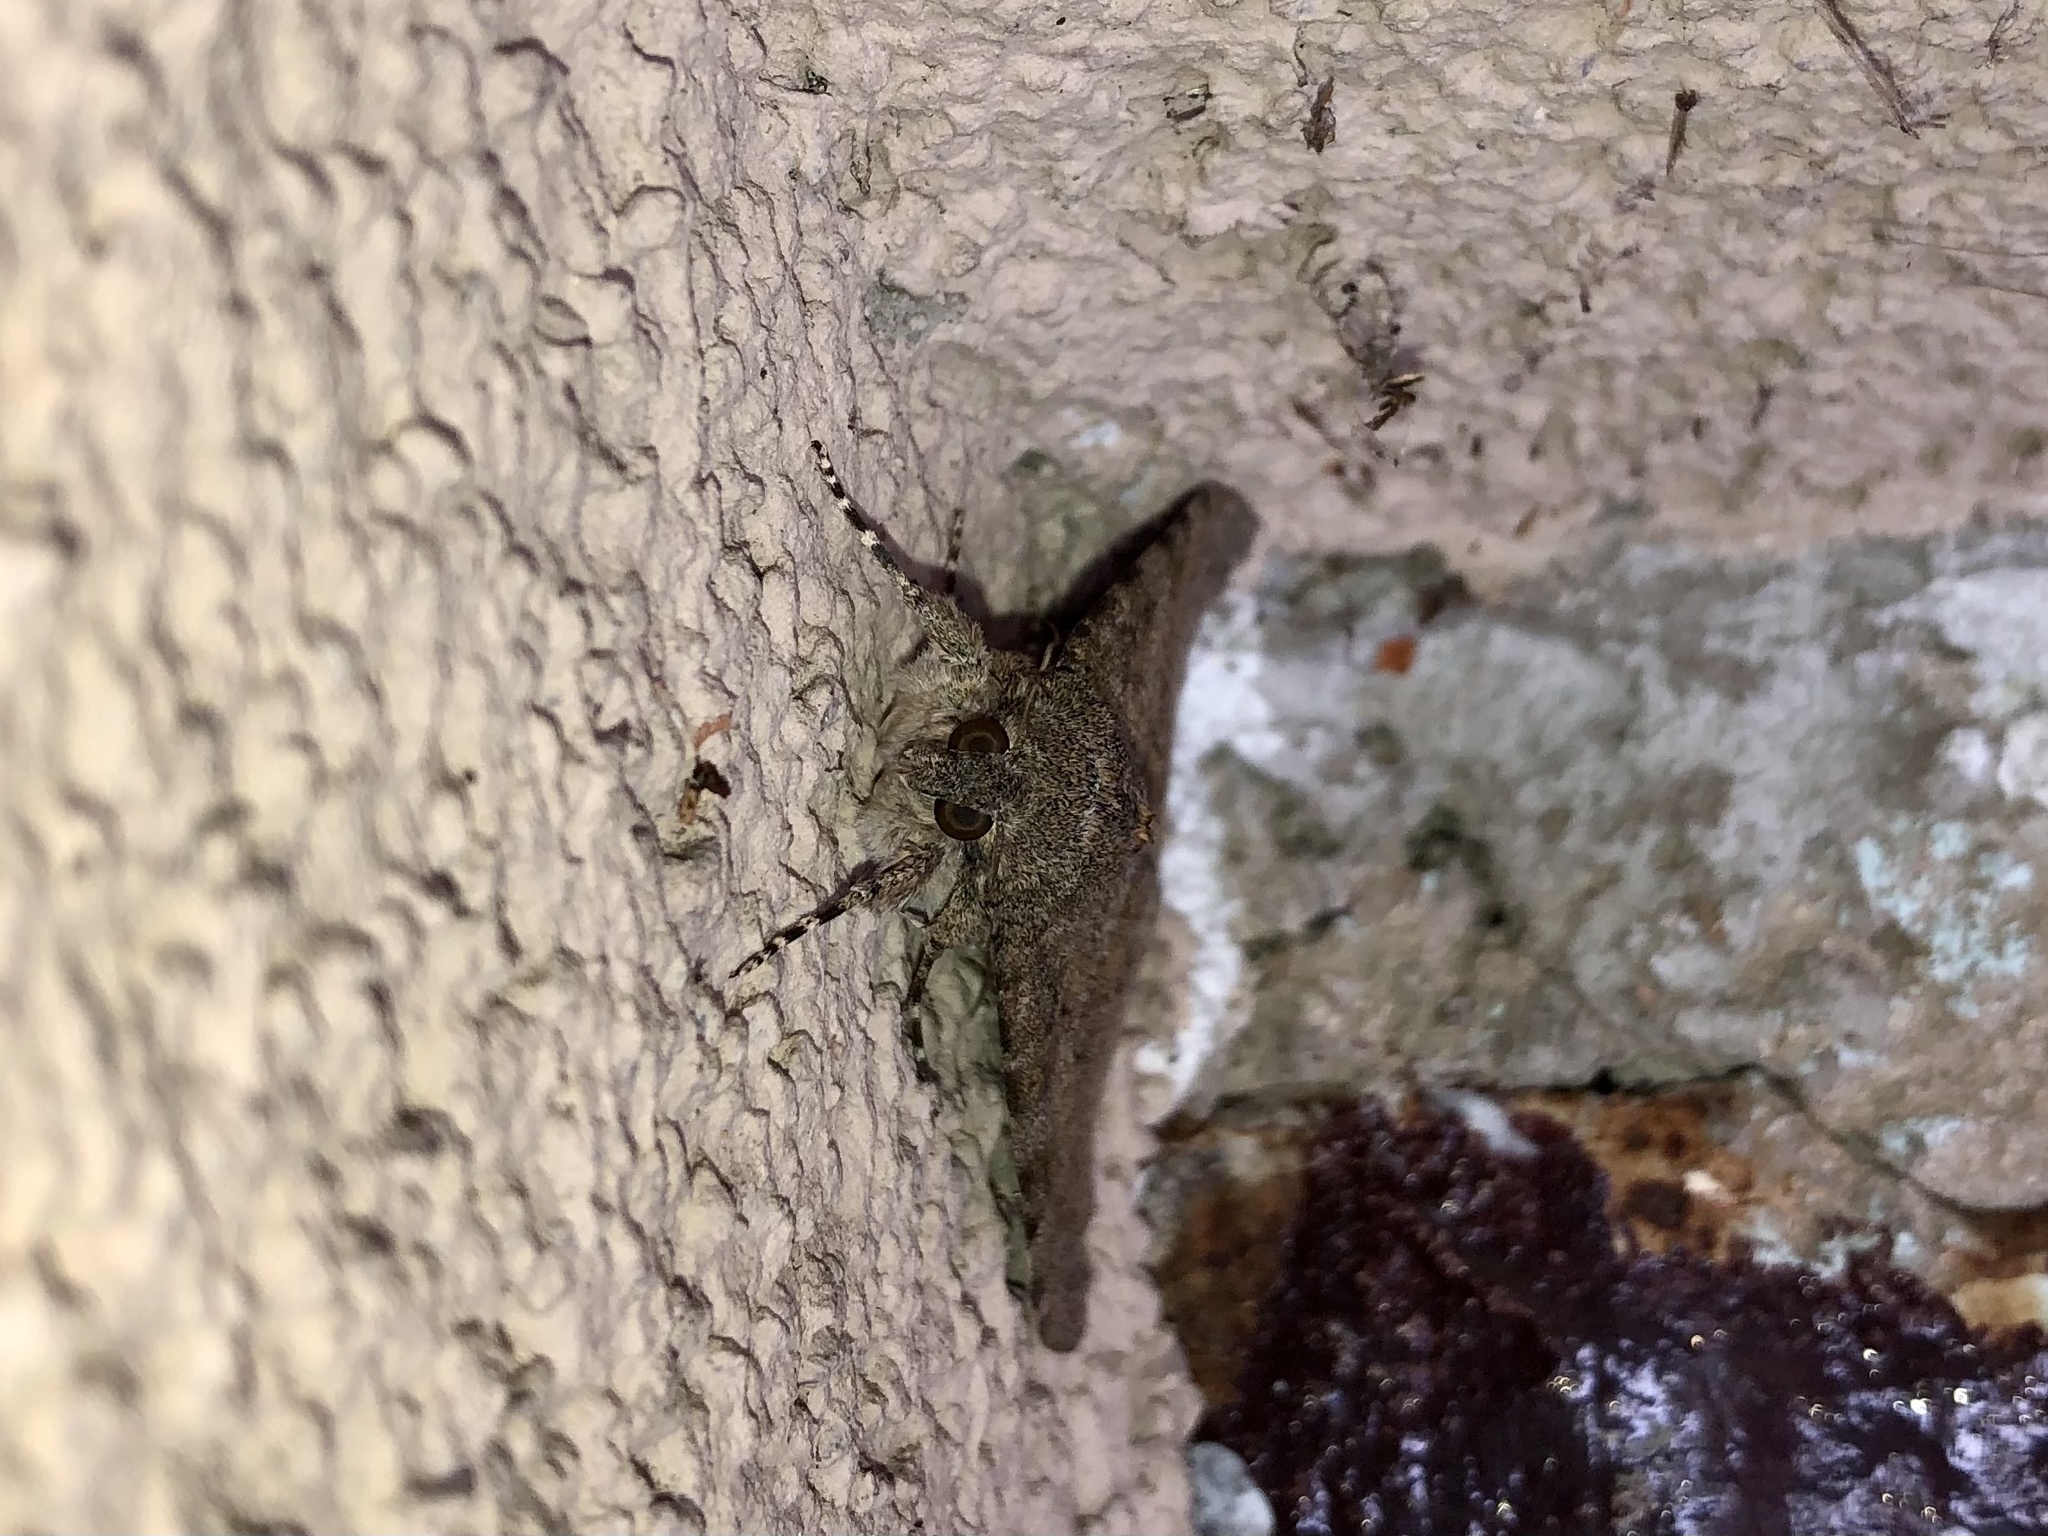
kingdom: Animalia
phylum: Arthropoda
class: Insecta
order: Lepidoptera
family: Erebidae
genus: Catocala
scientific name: Catocala elocata
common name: French red underwing
